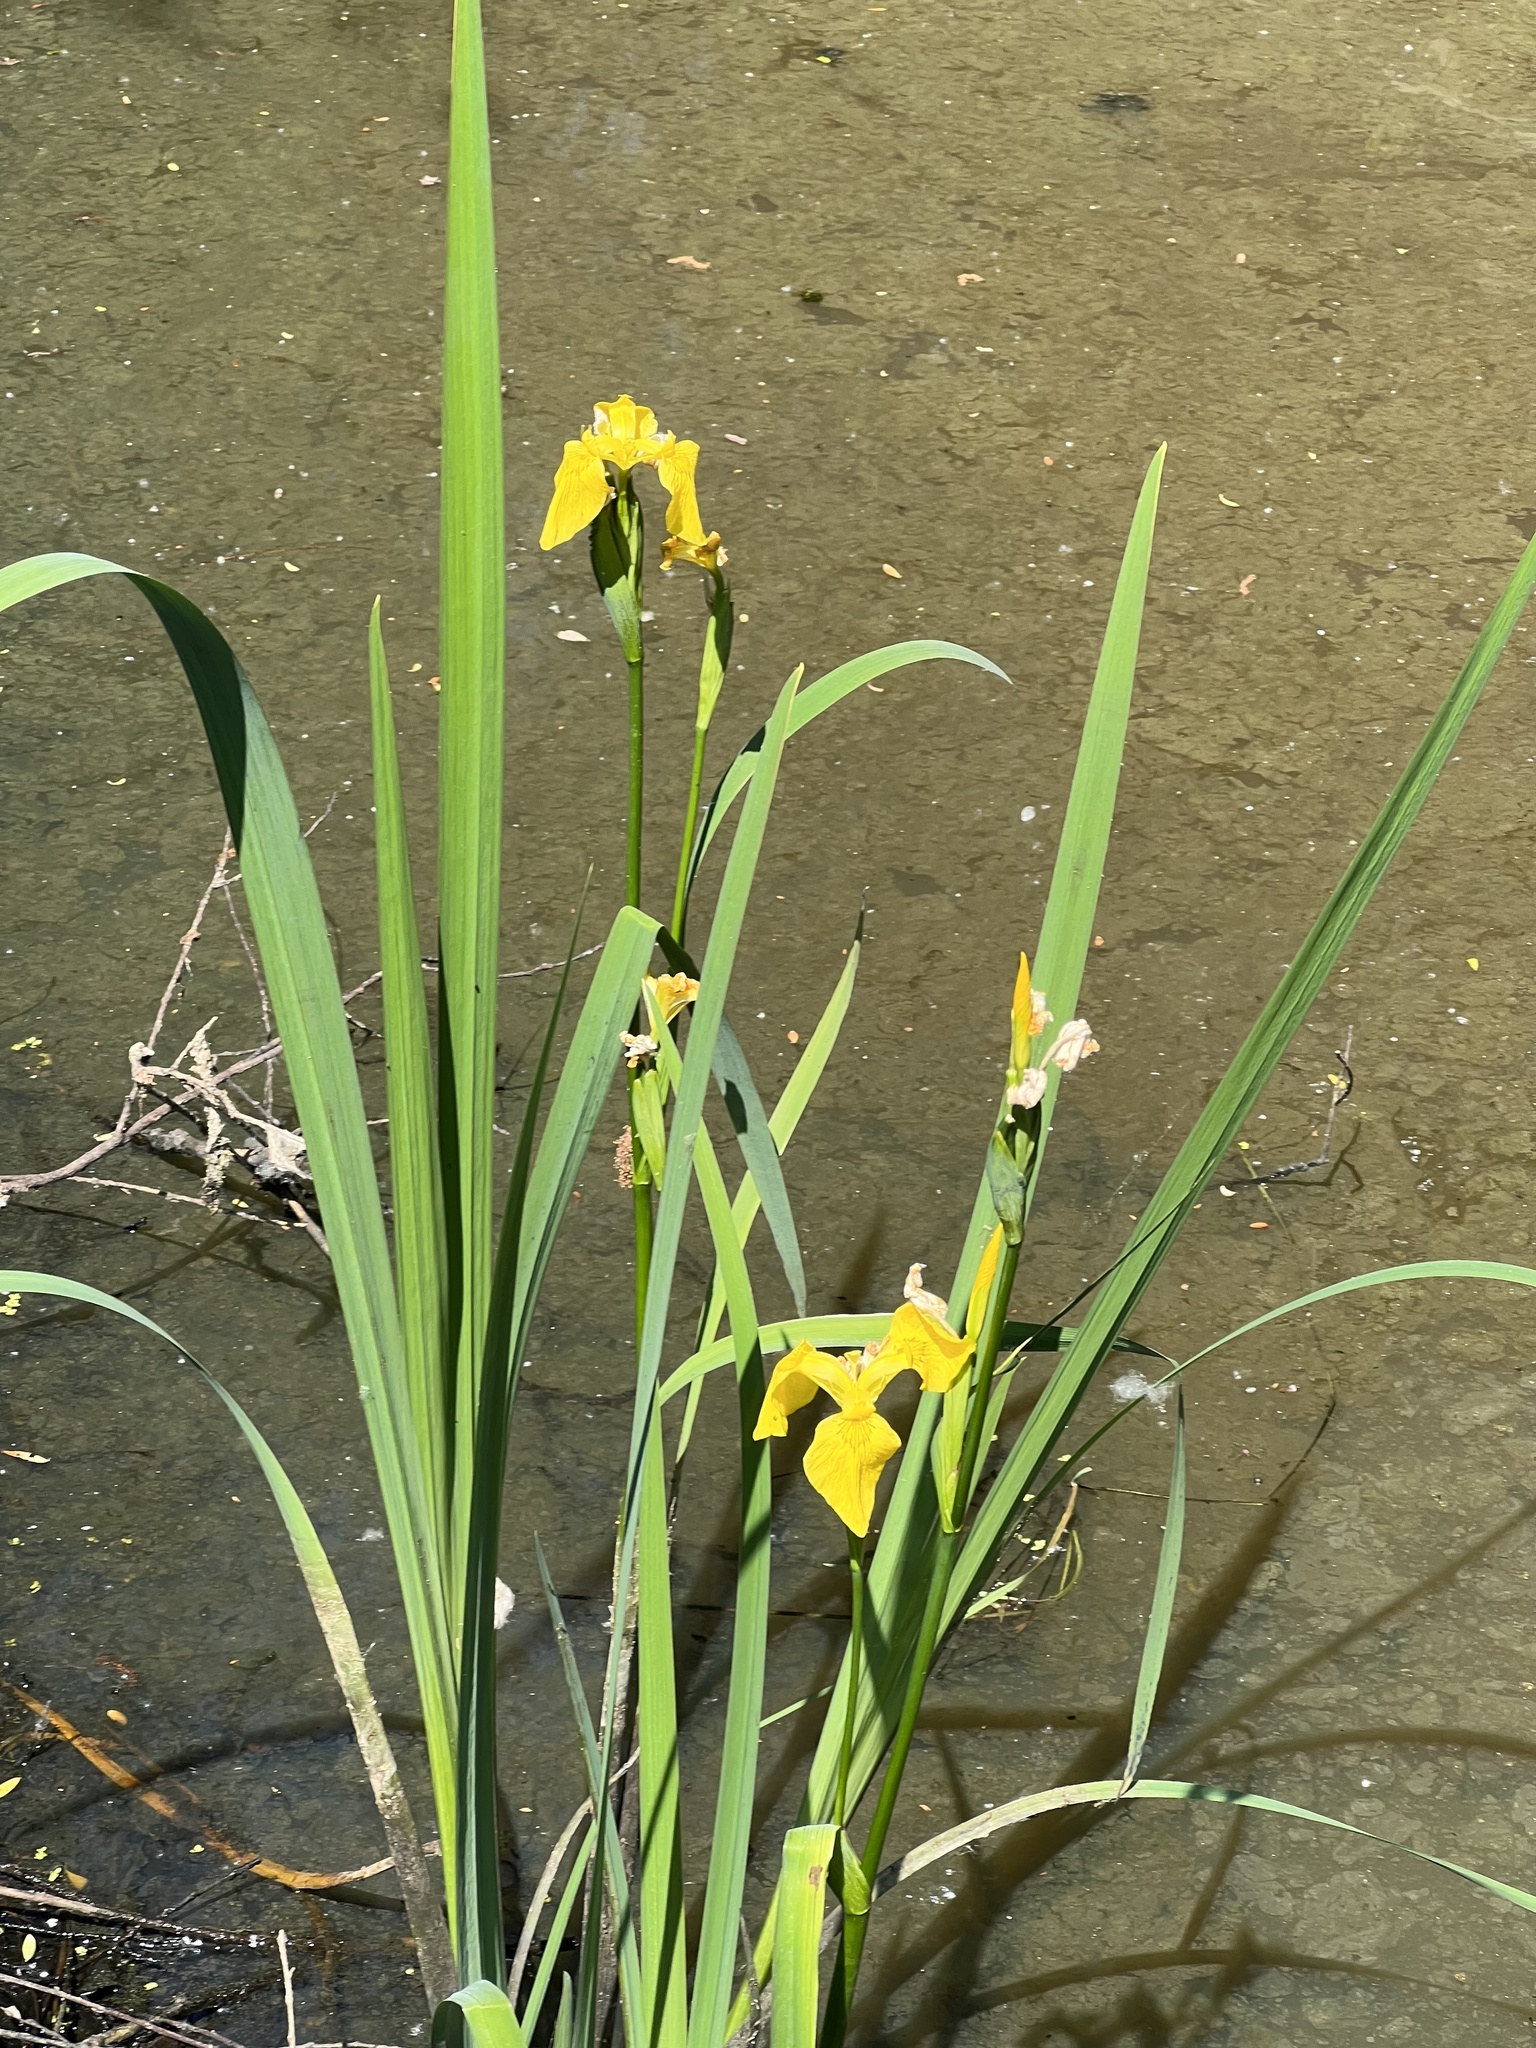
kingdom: Plantae
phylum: Tracheophyta
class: Liliopsida
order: Asparagales
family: Iridaceae
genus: Iris
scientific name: Iris pseudacorus
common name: Yellow flag
